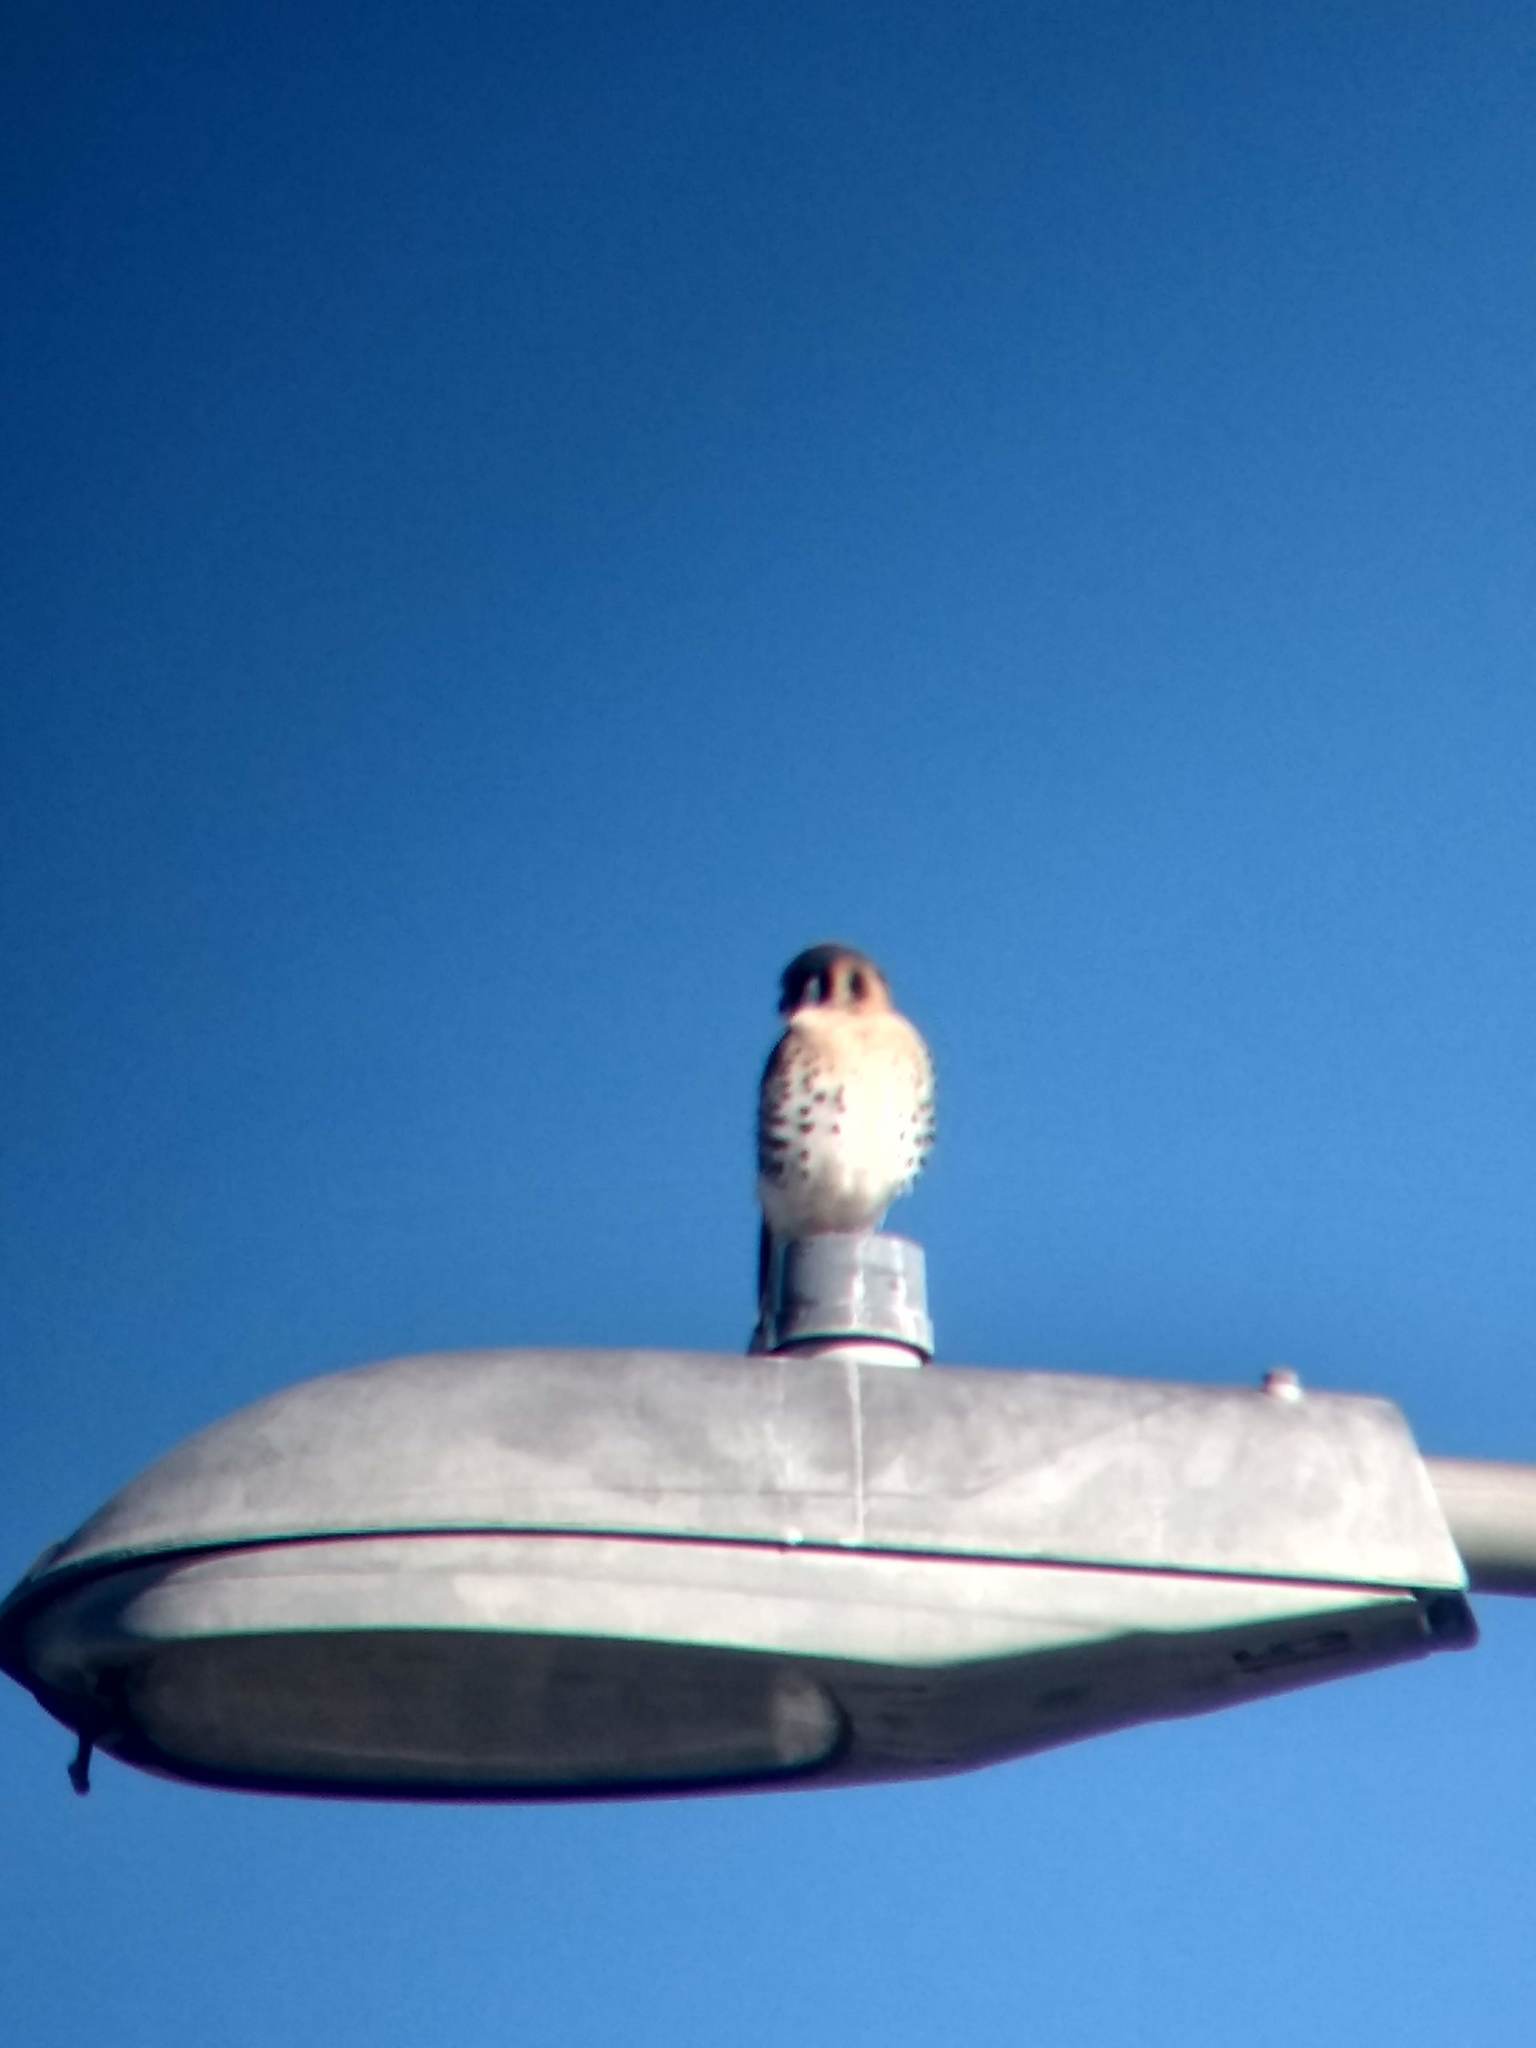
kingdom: Animalia
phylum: Chordata
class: Aves
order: Falconiformes
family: Falconidae
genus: Falco
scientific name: Falco sparverius
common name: American kestrel
